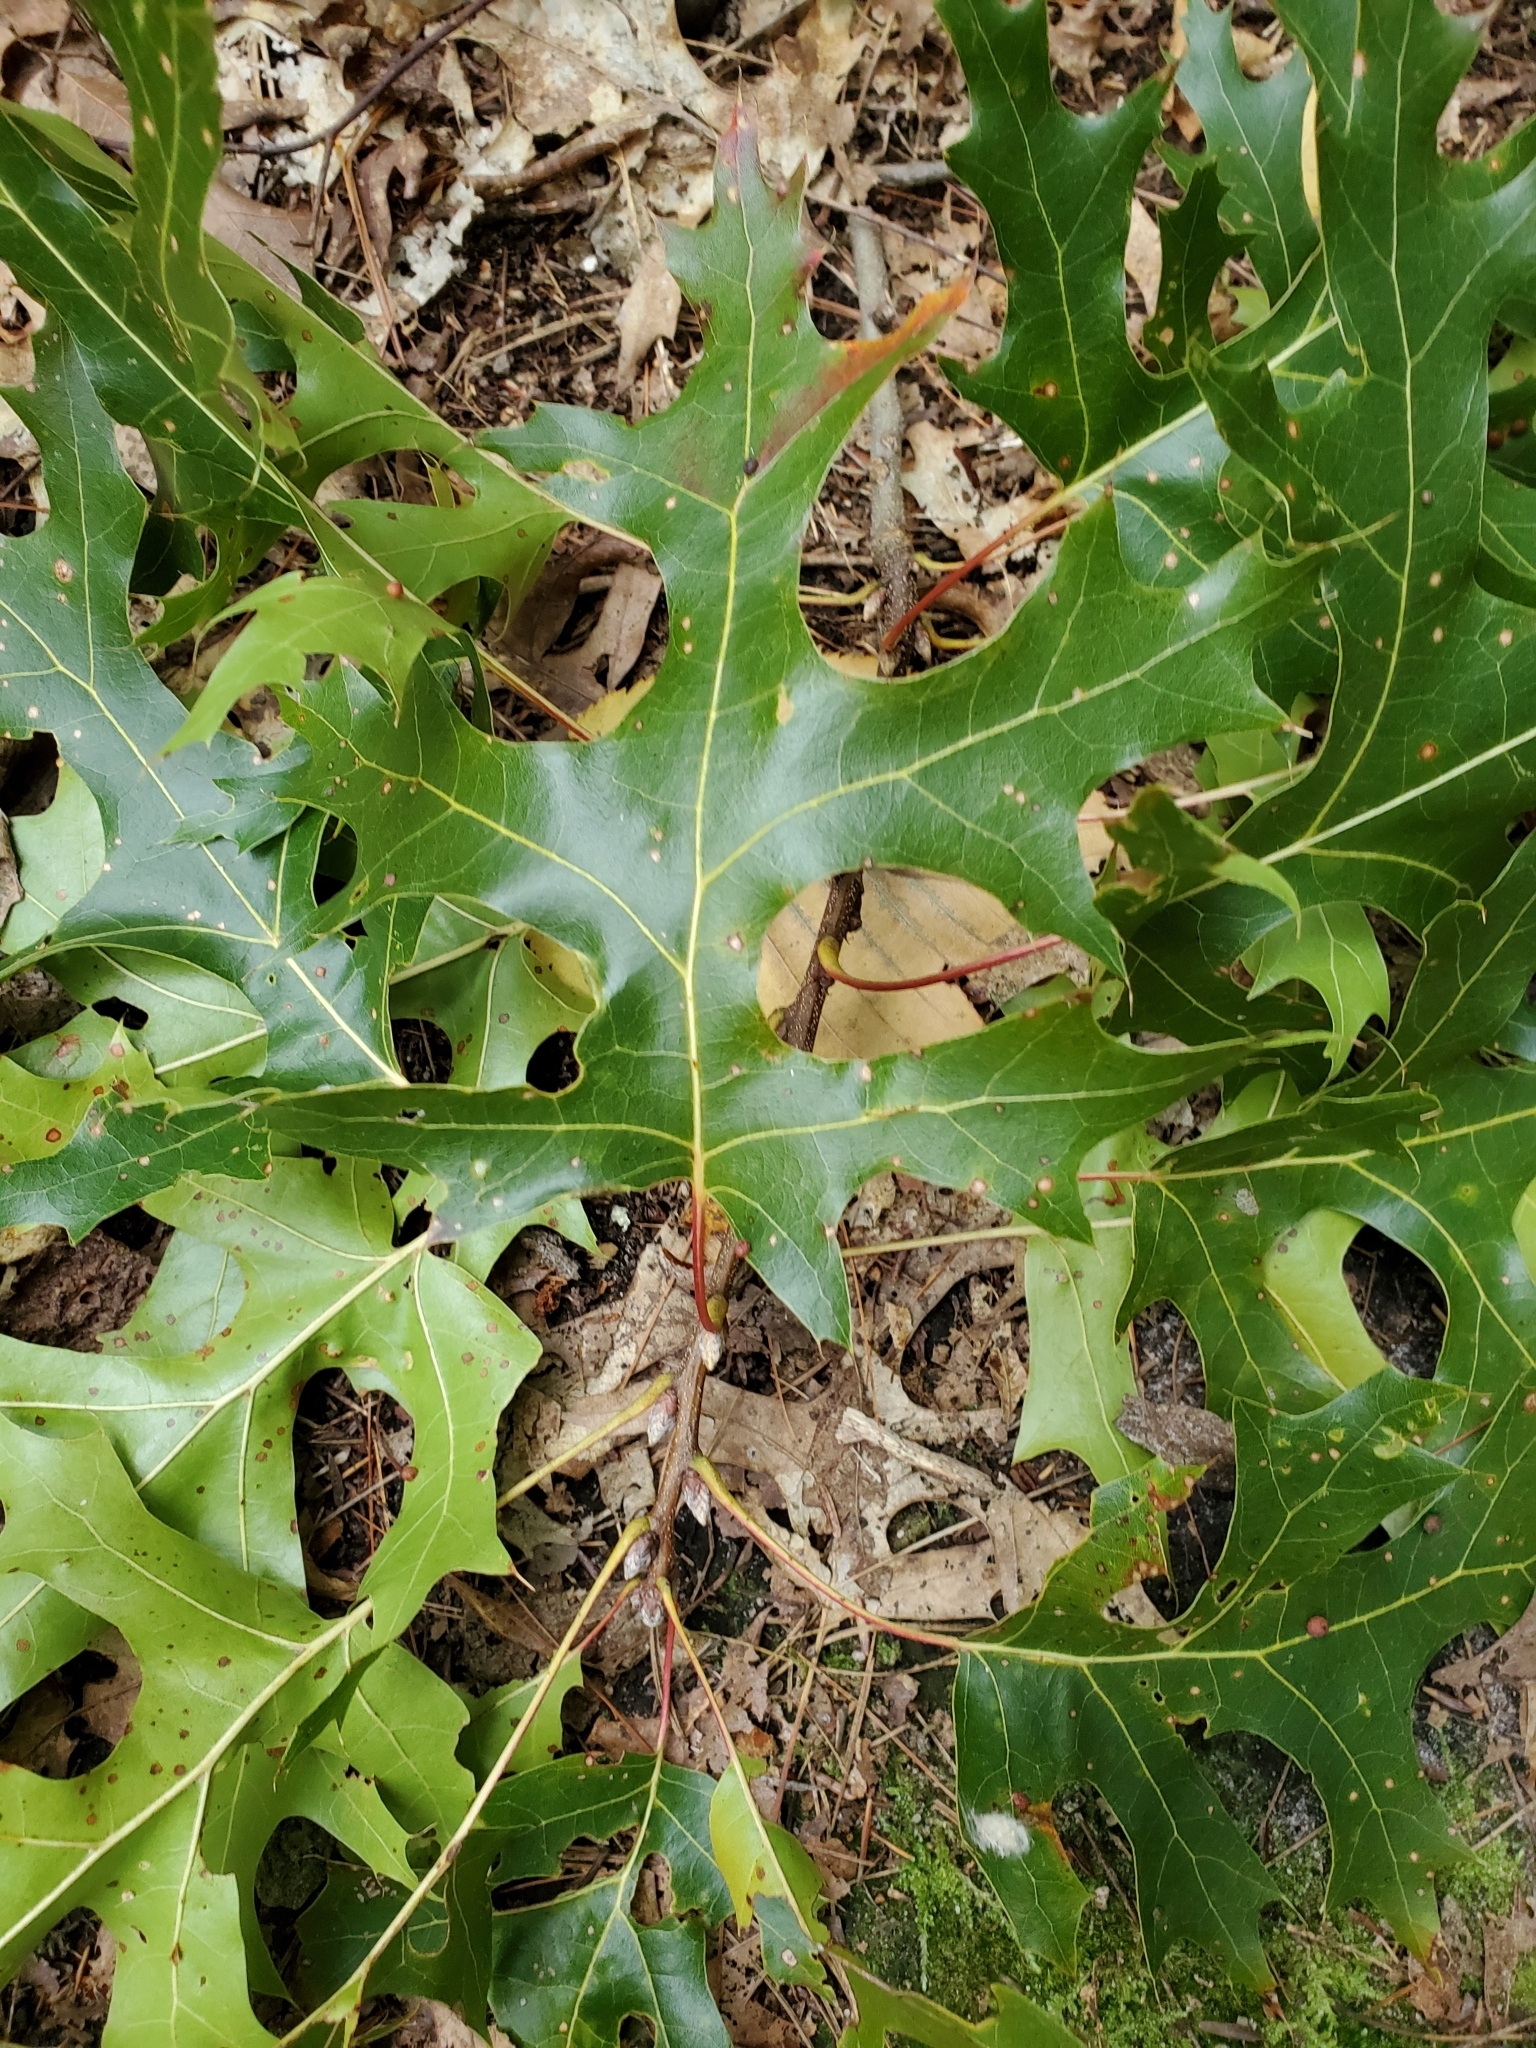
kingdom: Plantae
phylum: Tracheophyta
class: Magnoliopsida
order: Fagales
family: Fagaceae
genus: Quercus
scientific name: Quercus coccinea
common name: Scarlet oak
